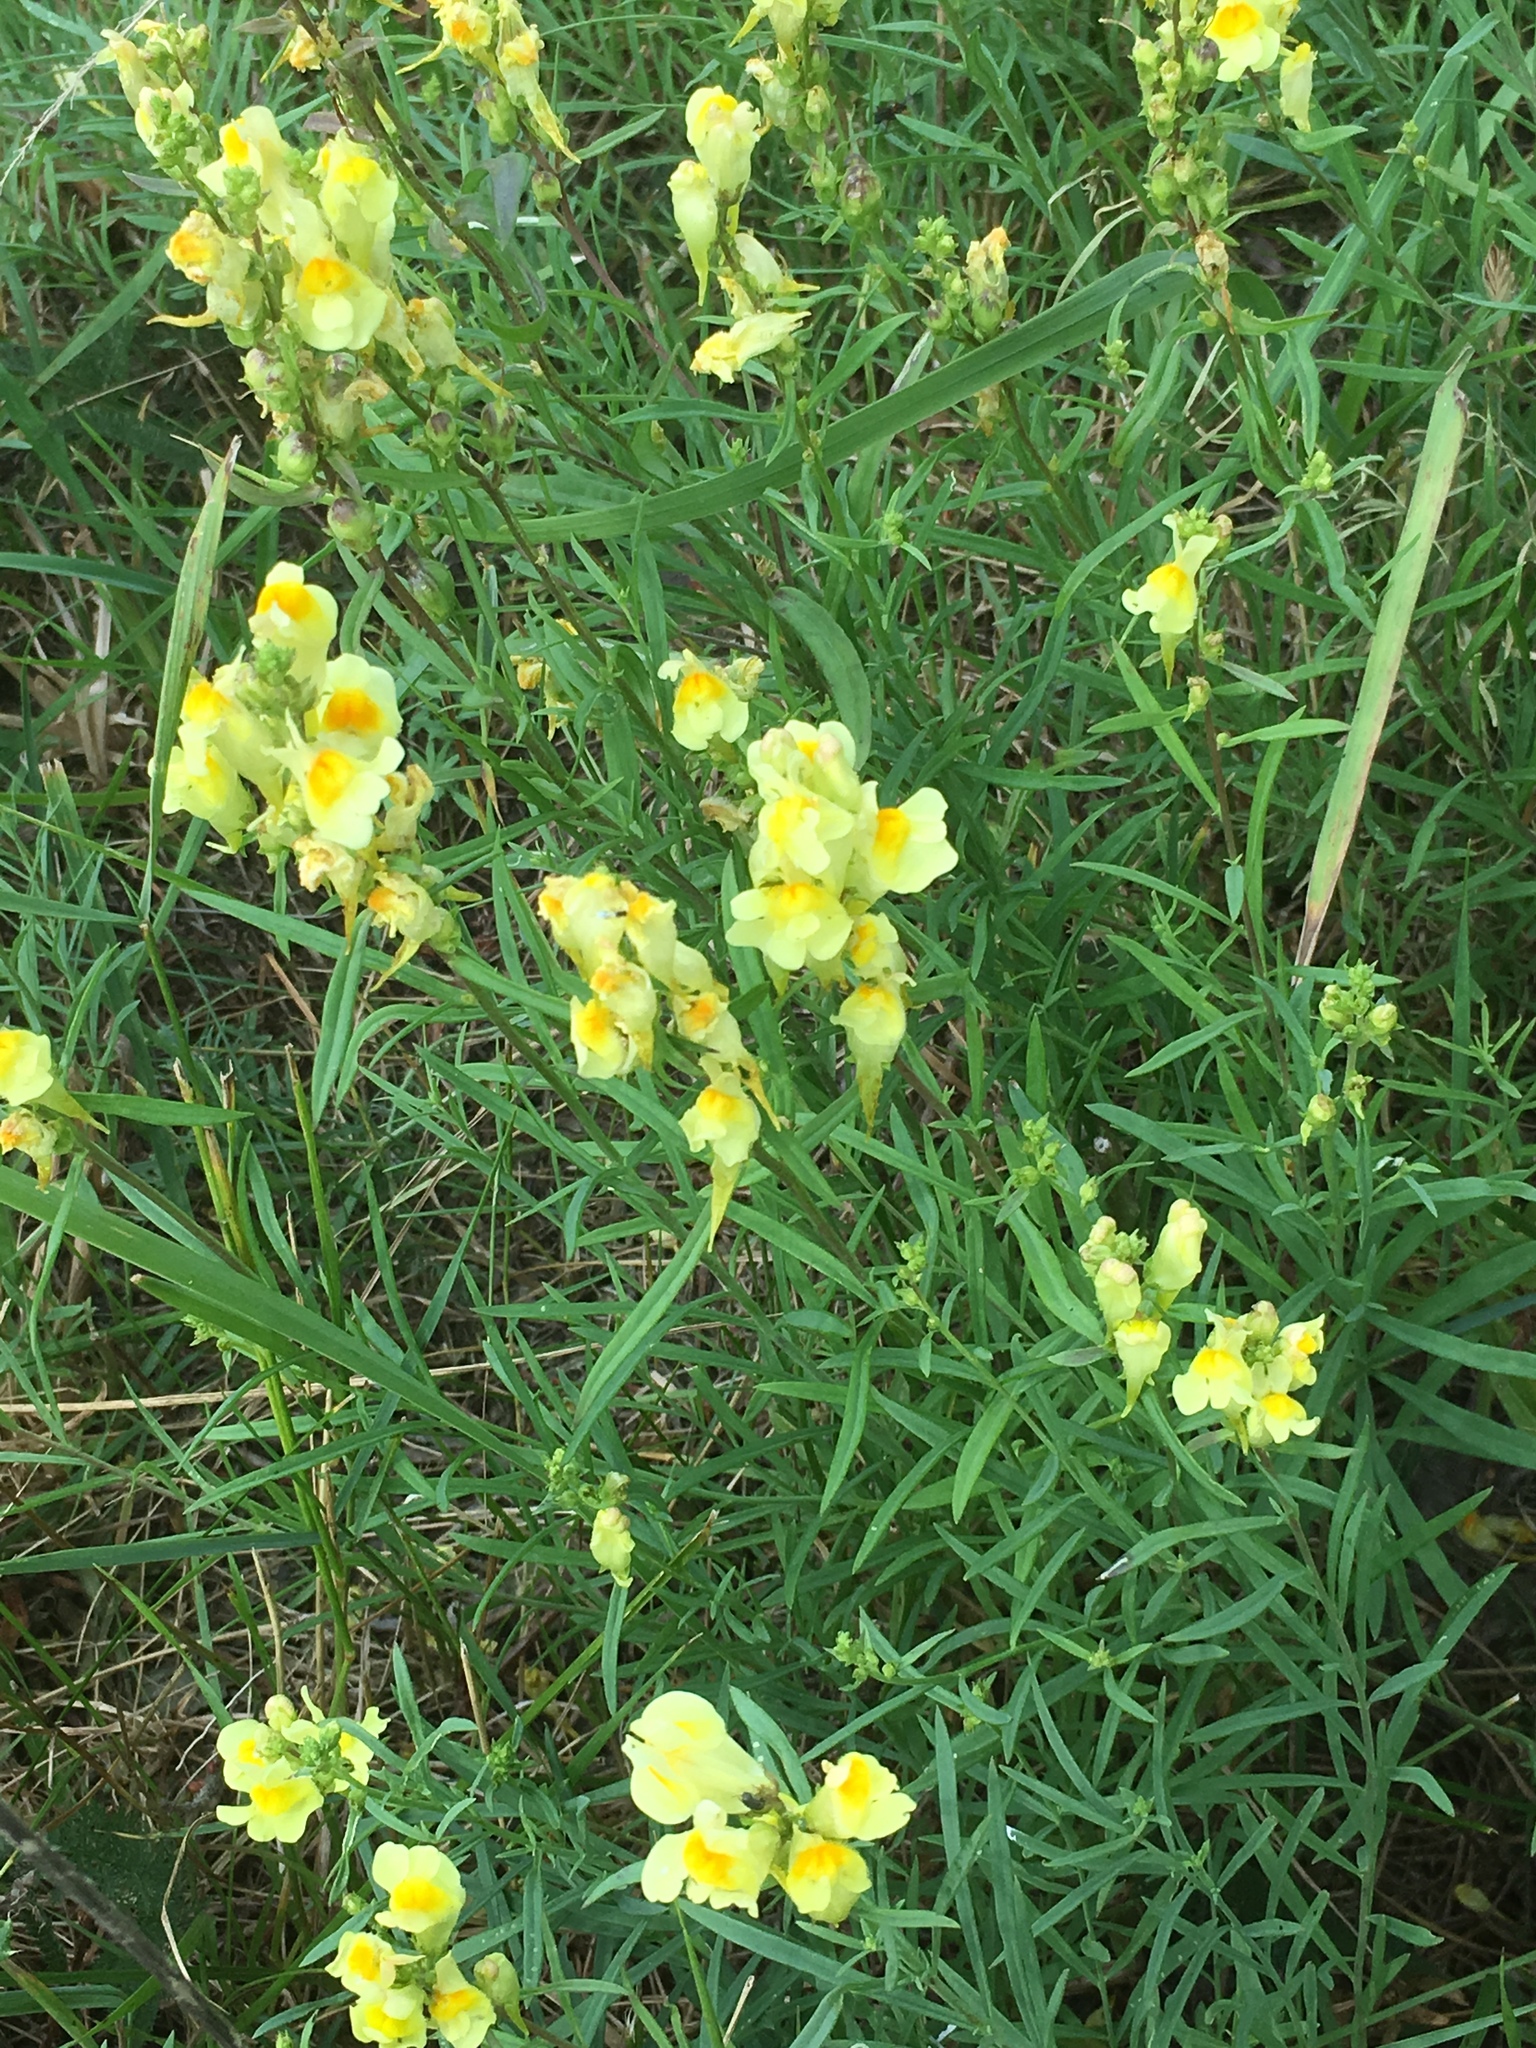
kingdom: Plantae
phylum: Tracheophyta
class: Magnoliopsida
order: Lamiales
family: Plantaginaceae
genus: Linaria
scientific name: Linaria vulgaris
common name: Butter and eggs
